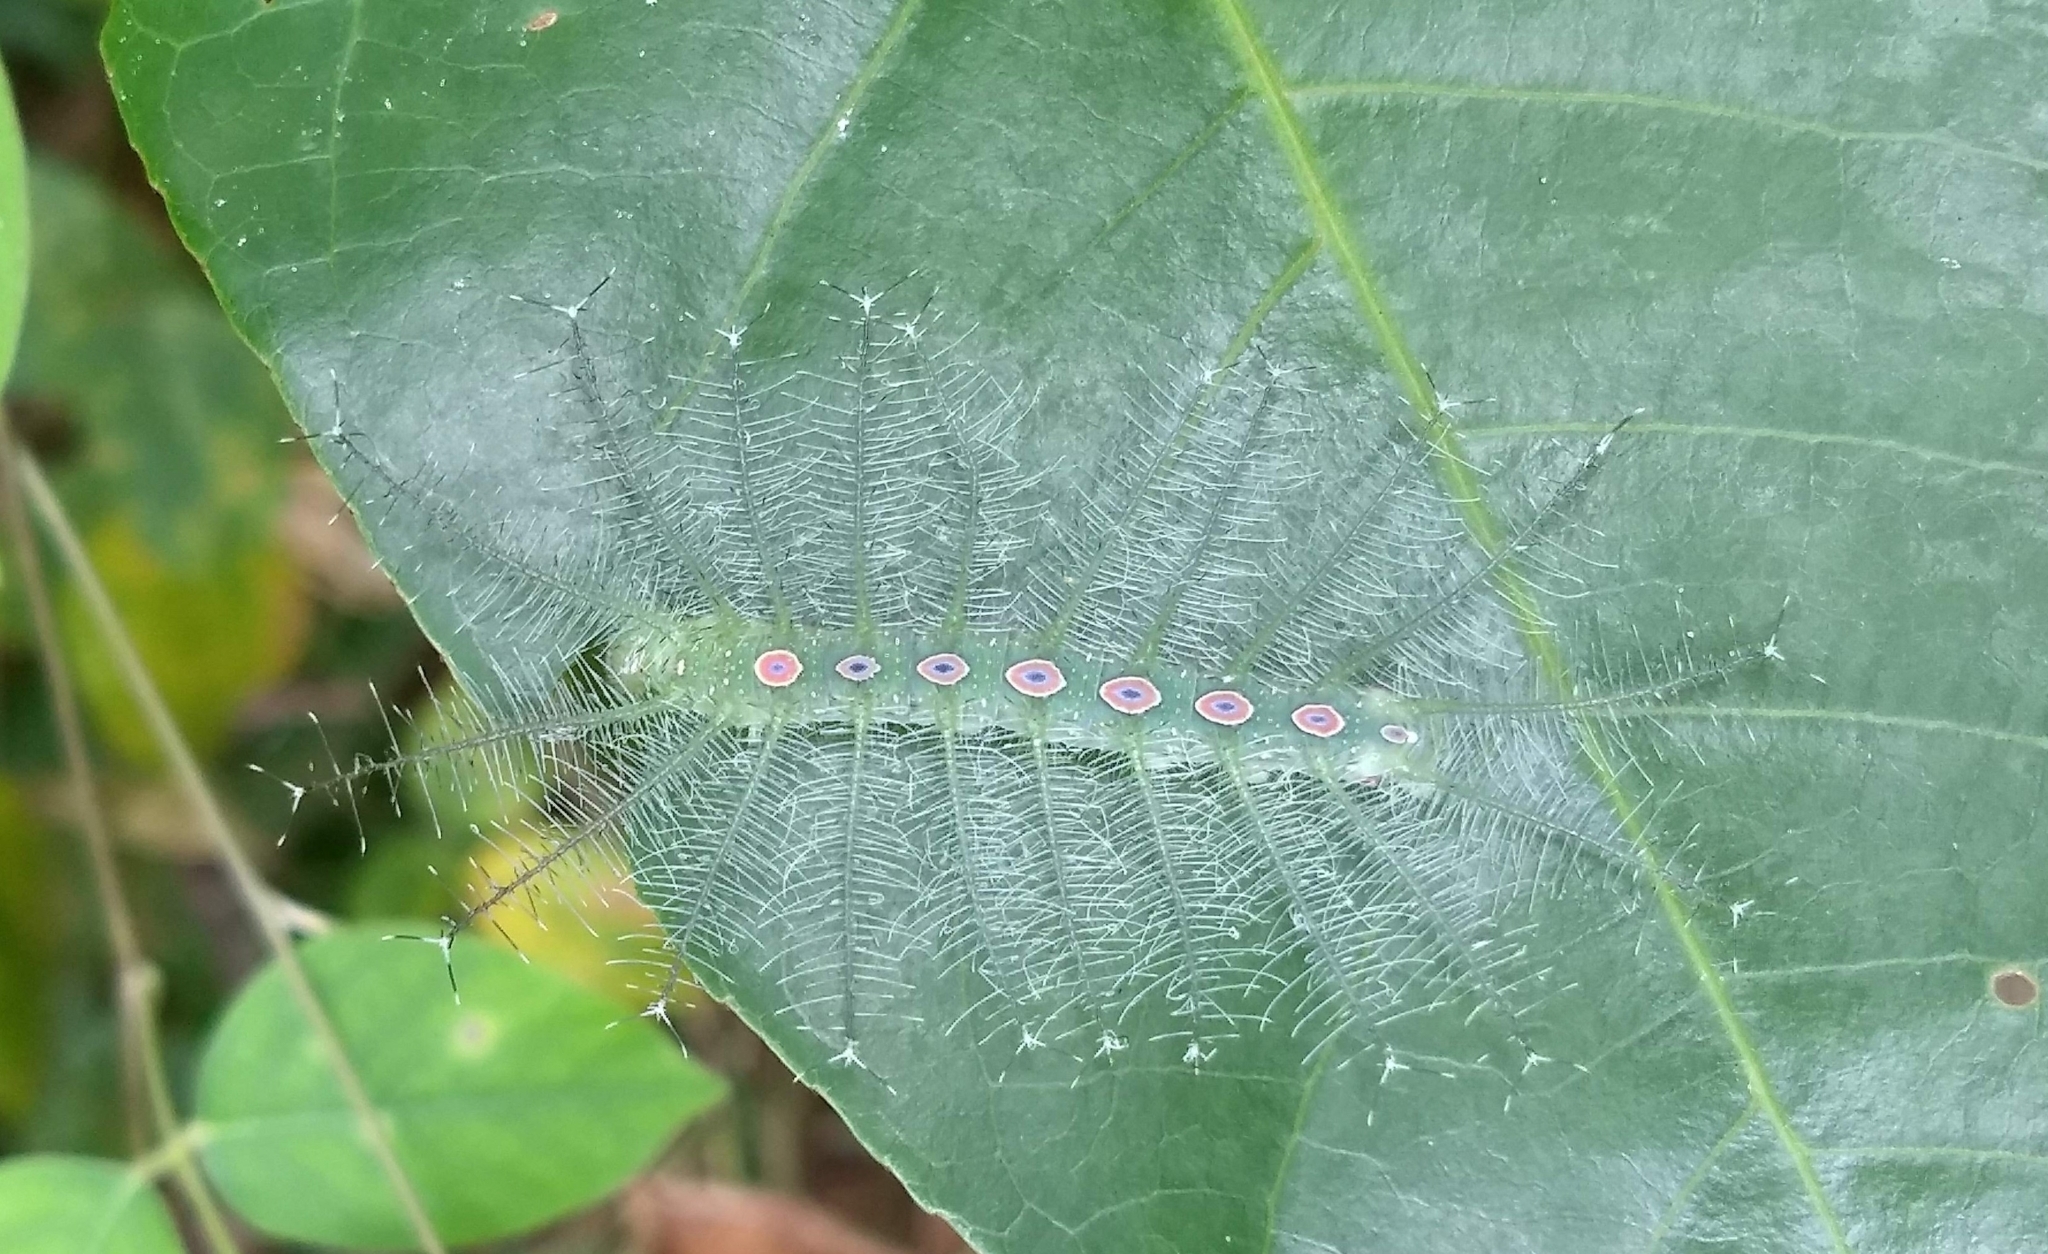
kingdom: Animalia
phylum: Arthropoda
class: Insecta
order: Lepidoptera
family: Nymphalidae
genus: Tanaecia
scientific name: Tanaecia lepidea
